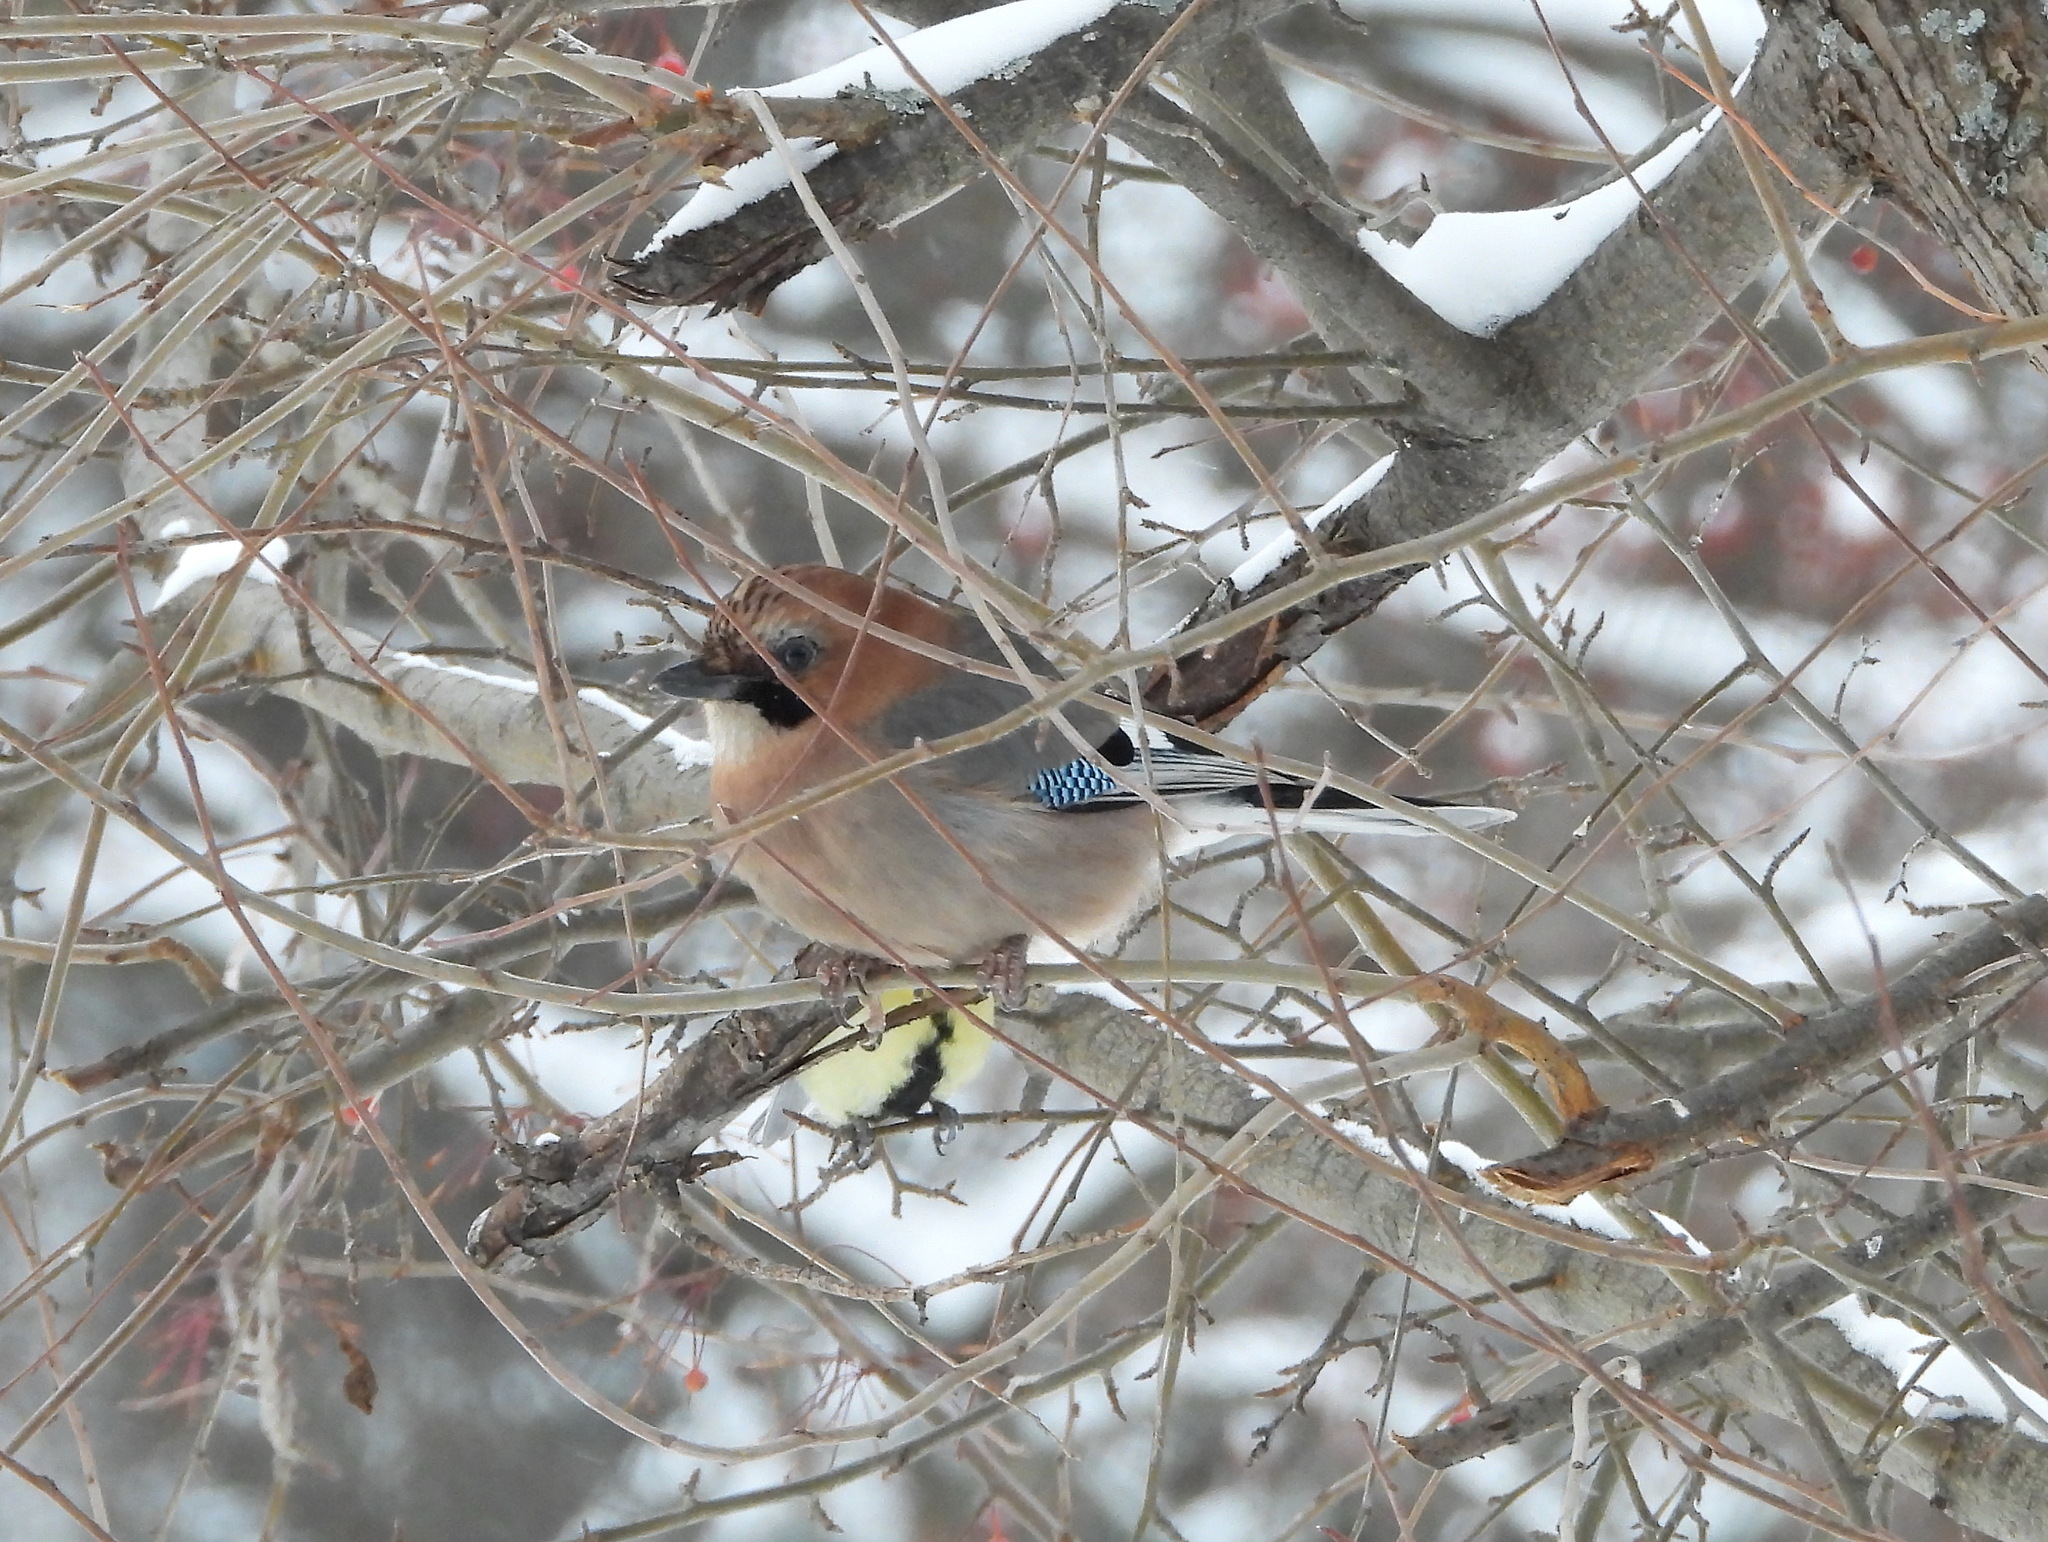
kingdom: Animalia
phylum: Chordata
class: Aves
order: Passeriformes
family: Corvidae
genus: Garrulus
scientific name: Garrulus glandarius
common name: Eurasian jay
